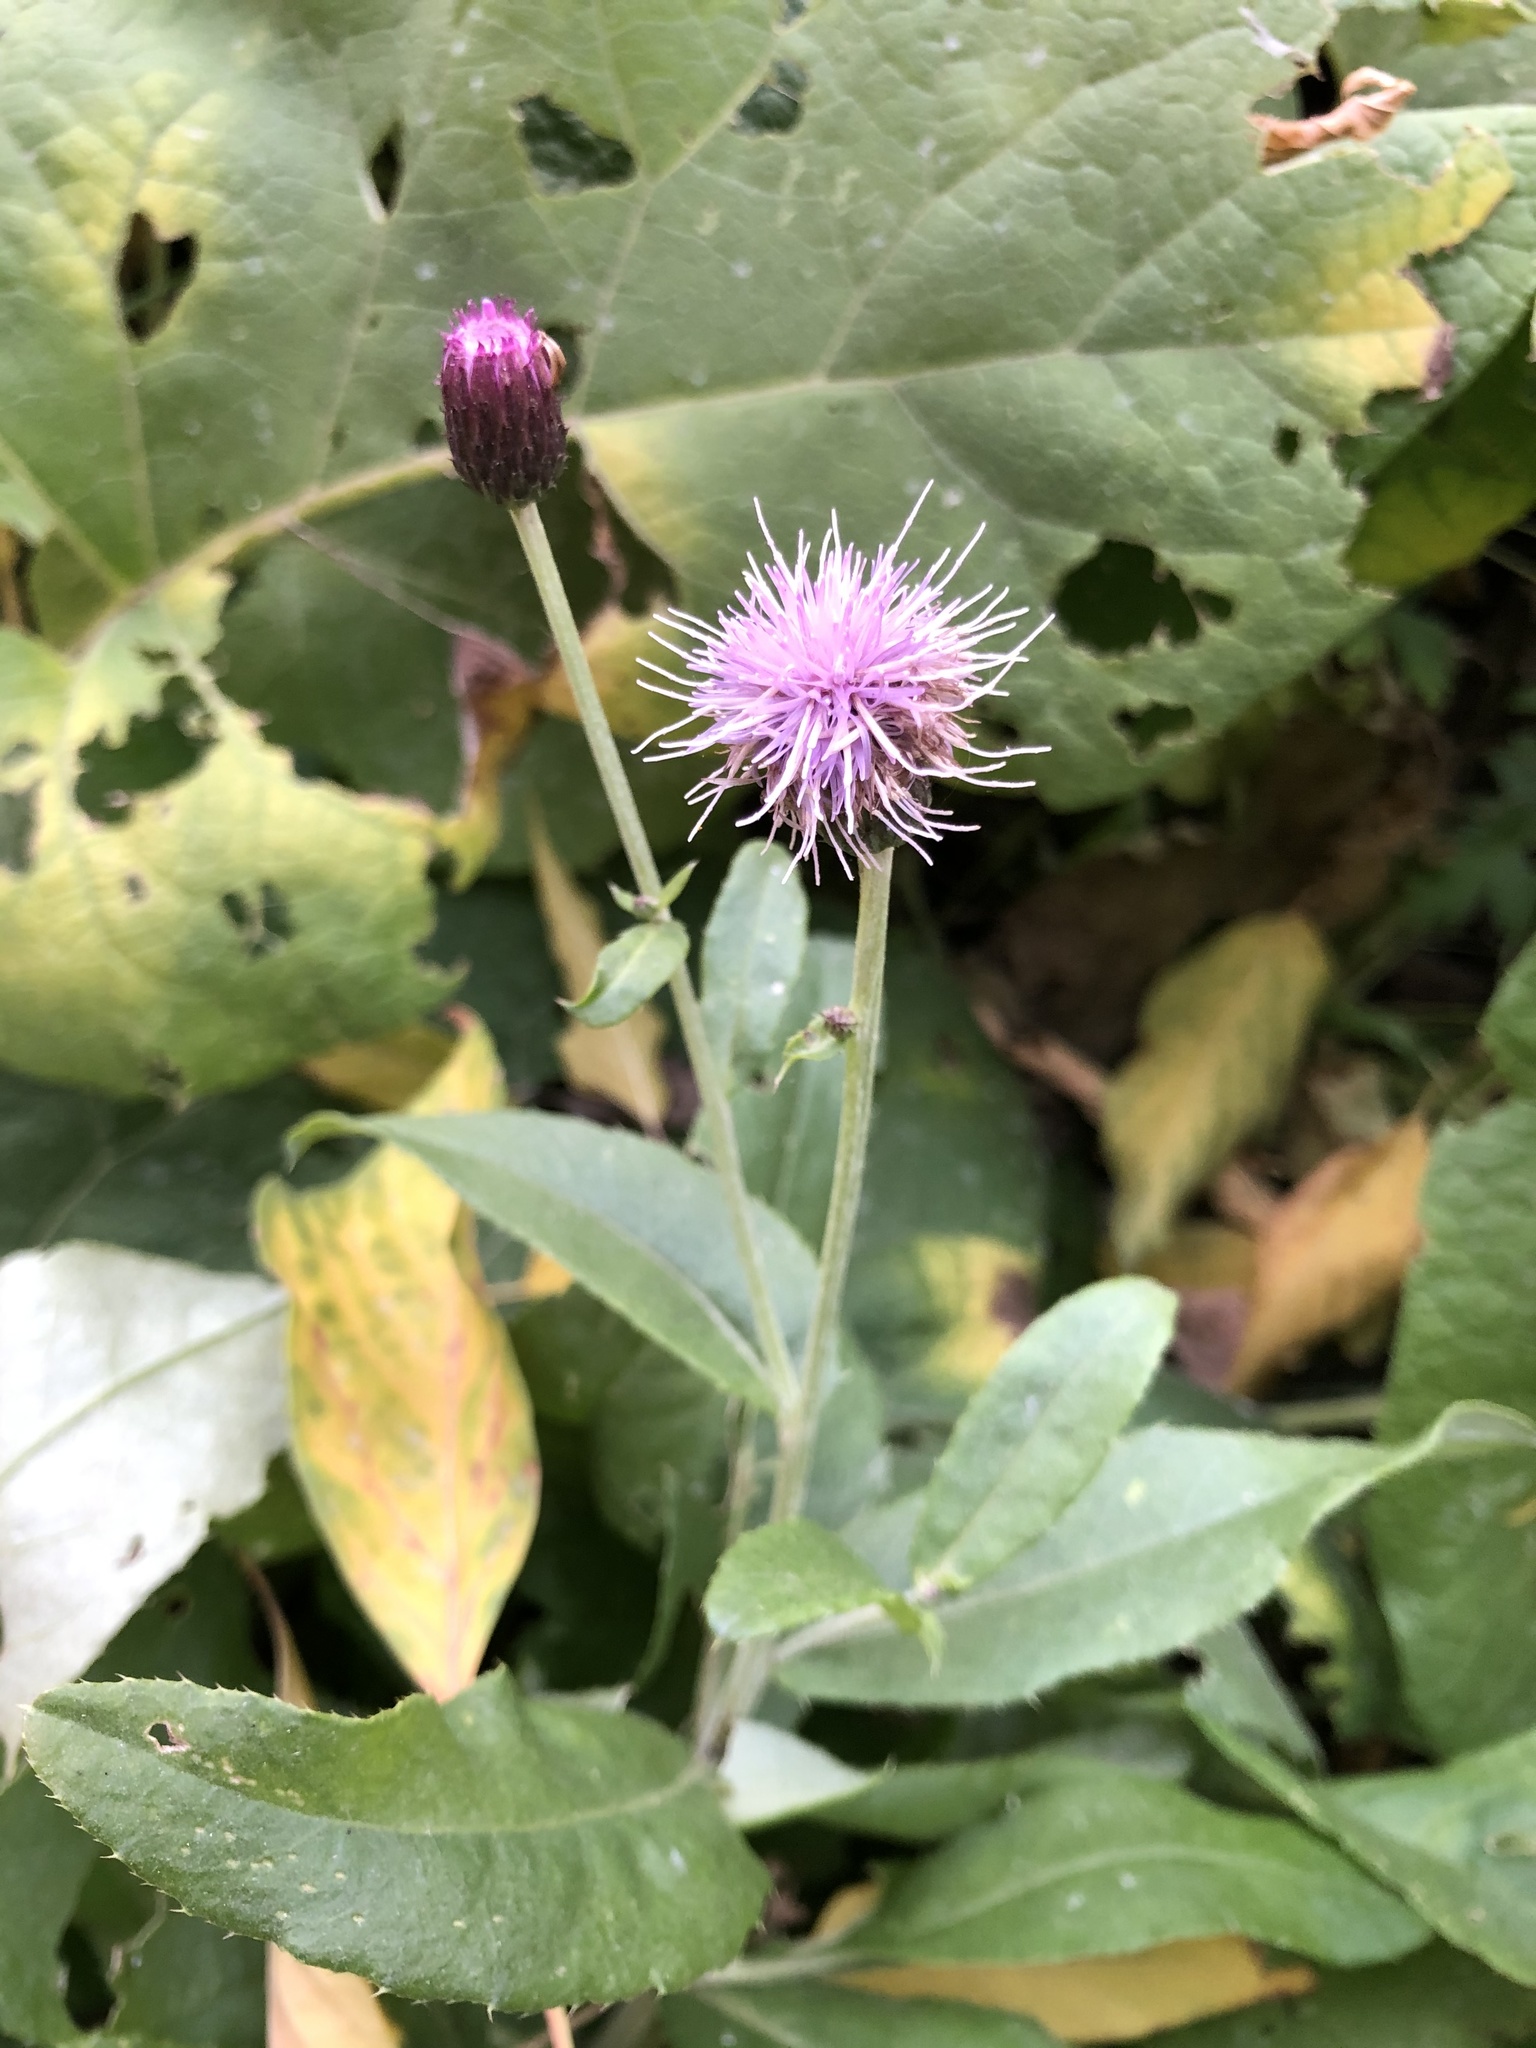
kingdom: Plantae
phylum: Tracheophyta
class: Magnoliopsida
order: Asterales
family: Asteraceae
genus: Cirsium
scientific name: Cirsium arvense
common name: Creeping thistle
